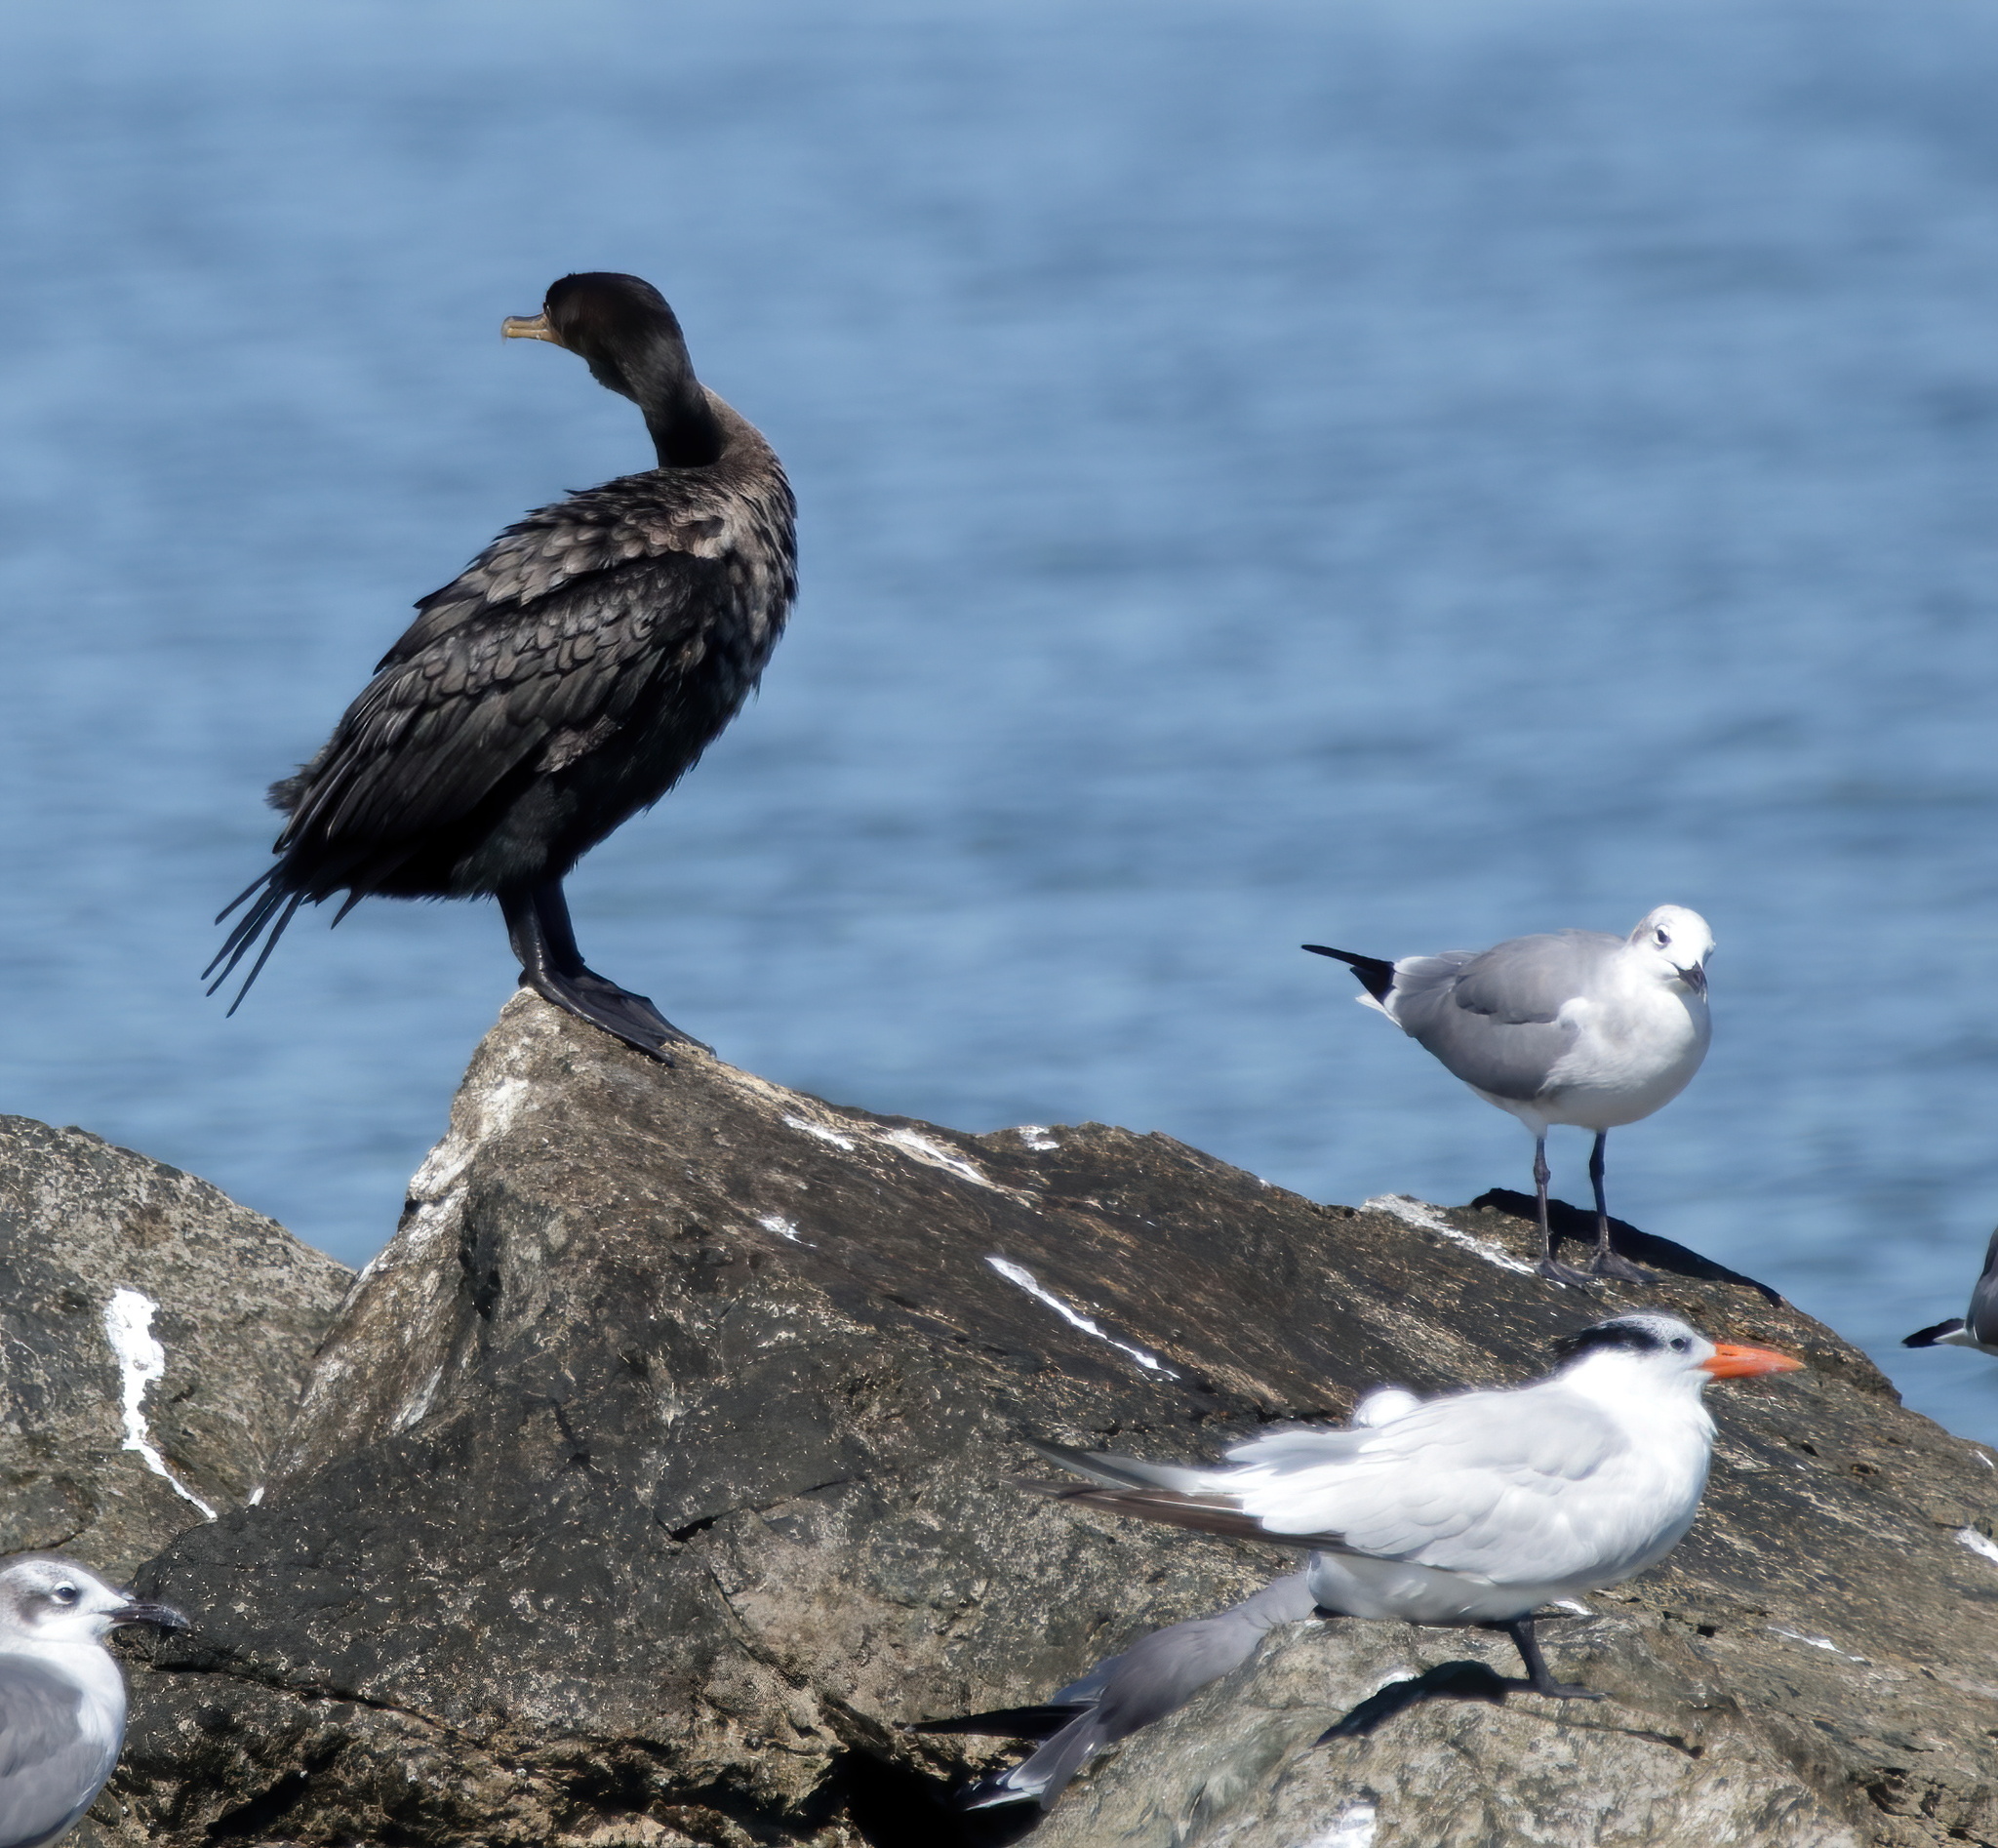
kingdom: Animalia
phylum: Chordata
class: Aves
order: Suliformes
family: Phalacrocoracidae
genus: Phalacrocorax
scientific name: Phalacrocorax auritus
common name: Double-crested cormorant
